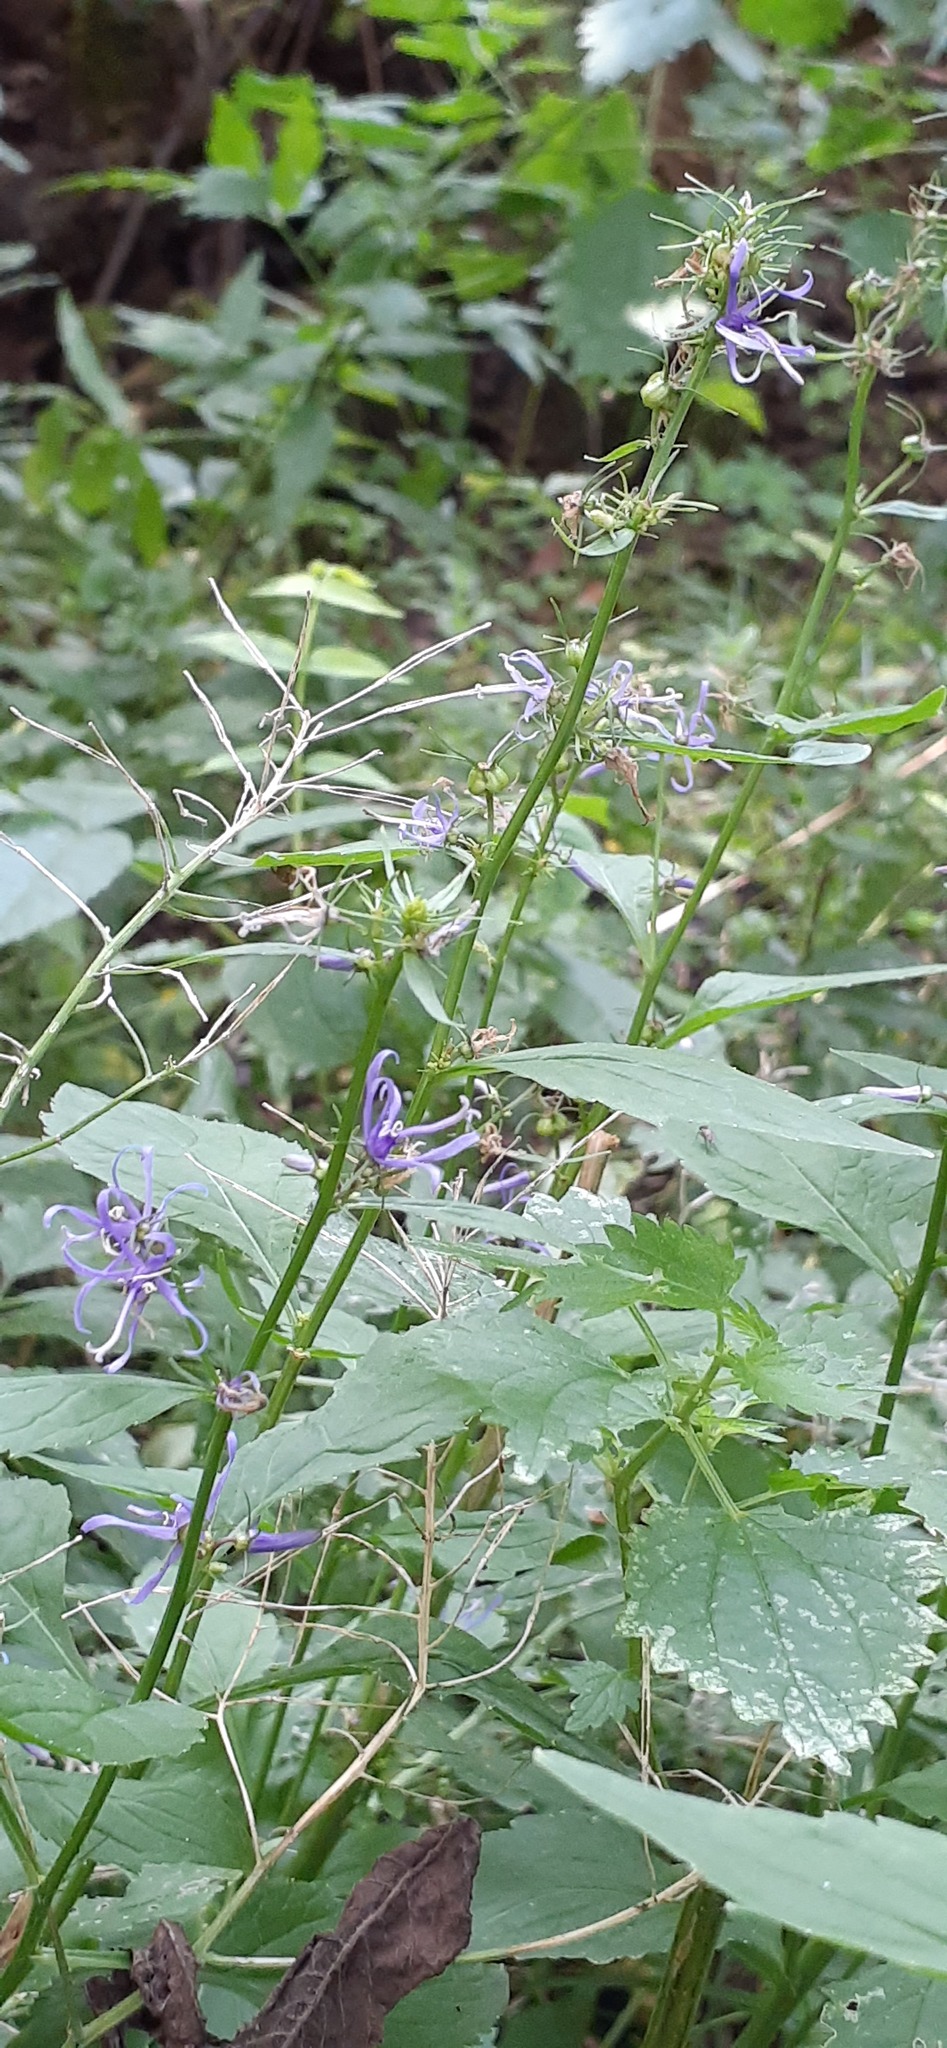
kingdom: Plantae
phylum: Tracheophyta
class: Magnoliopsida
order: Asterales
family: Campanulaceae
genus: Asyneuma
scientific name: Asyneuma japonicum
